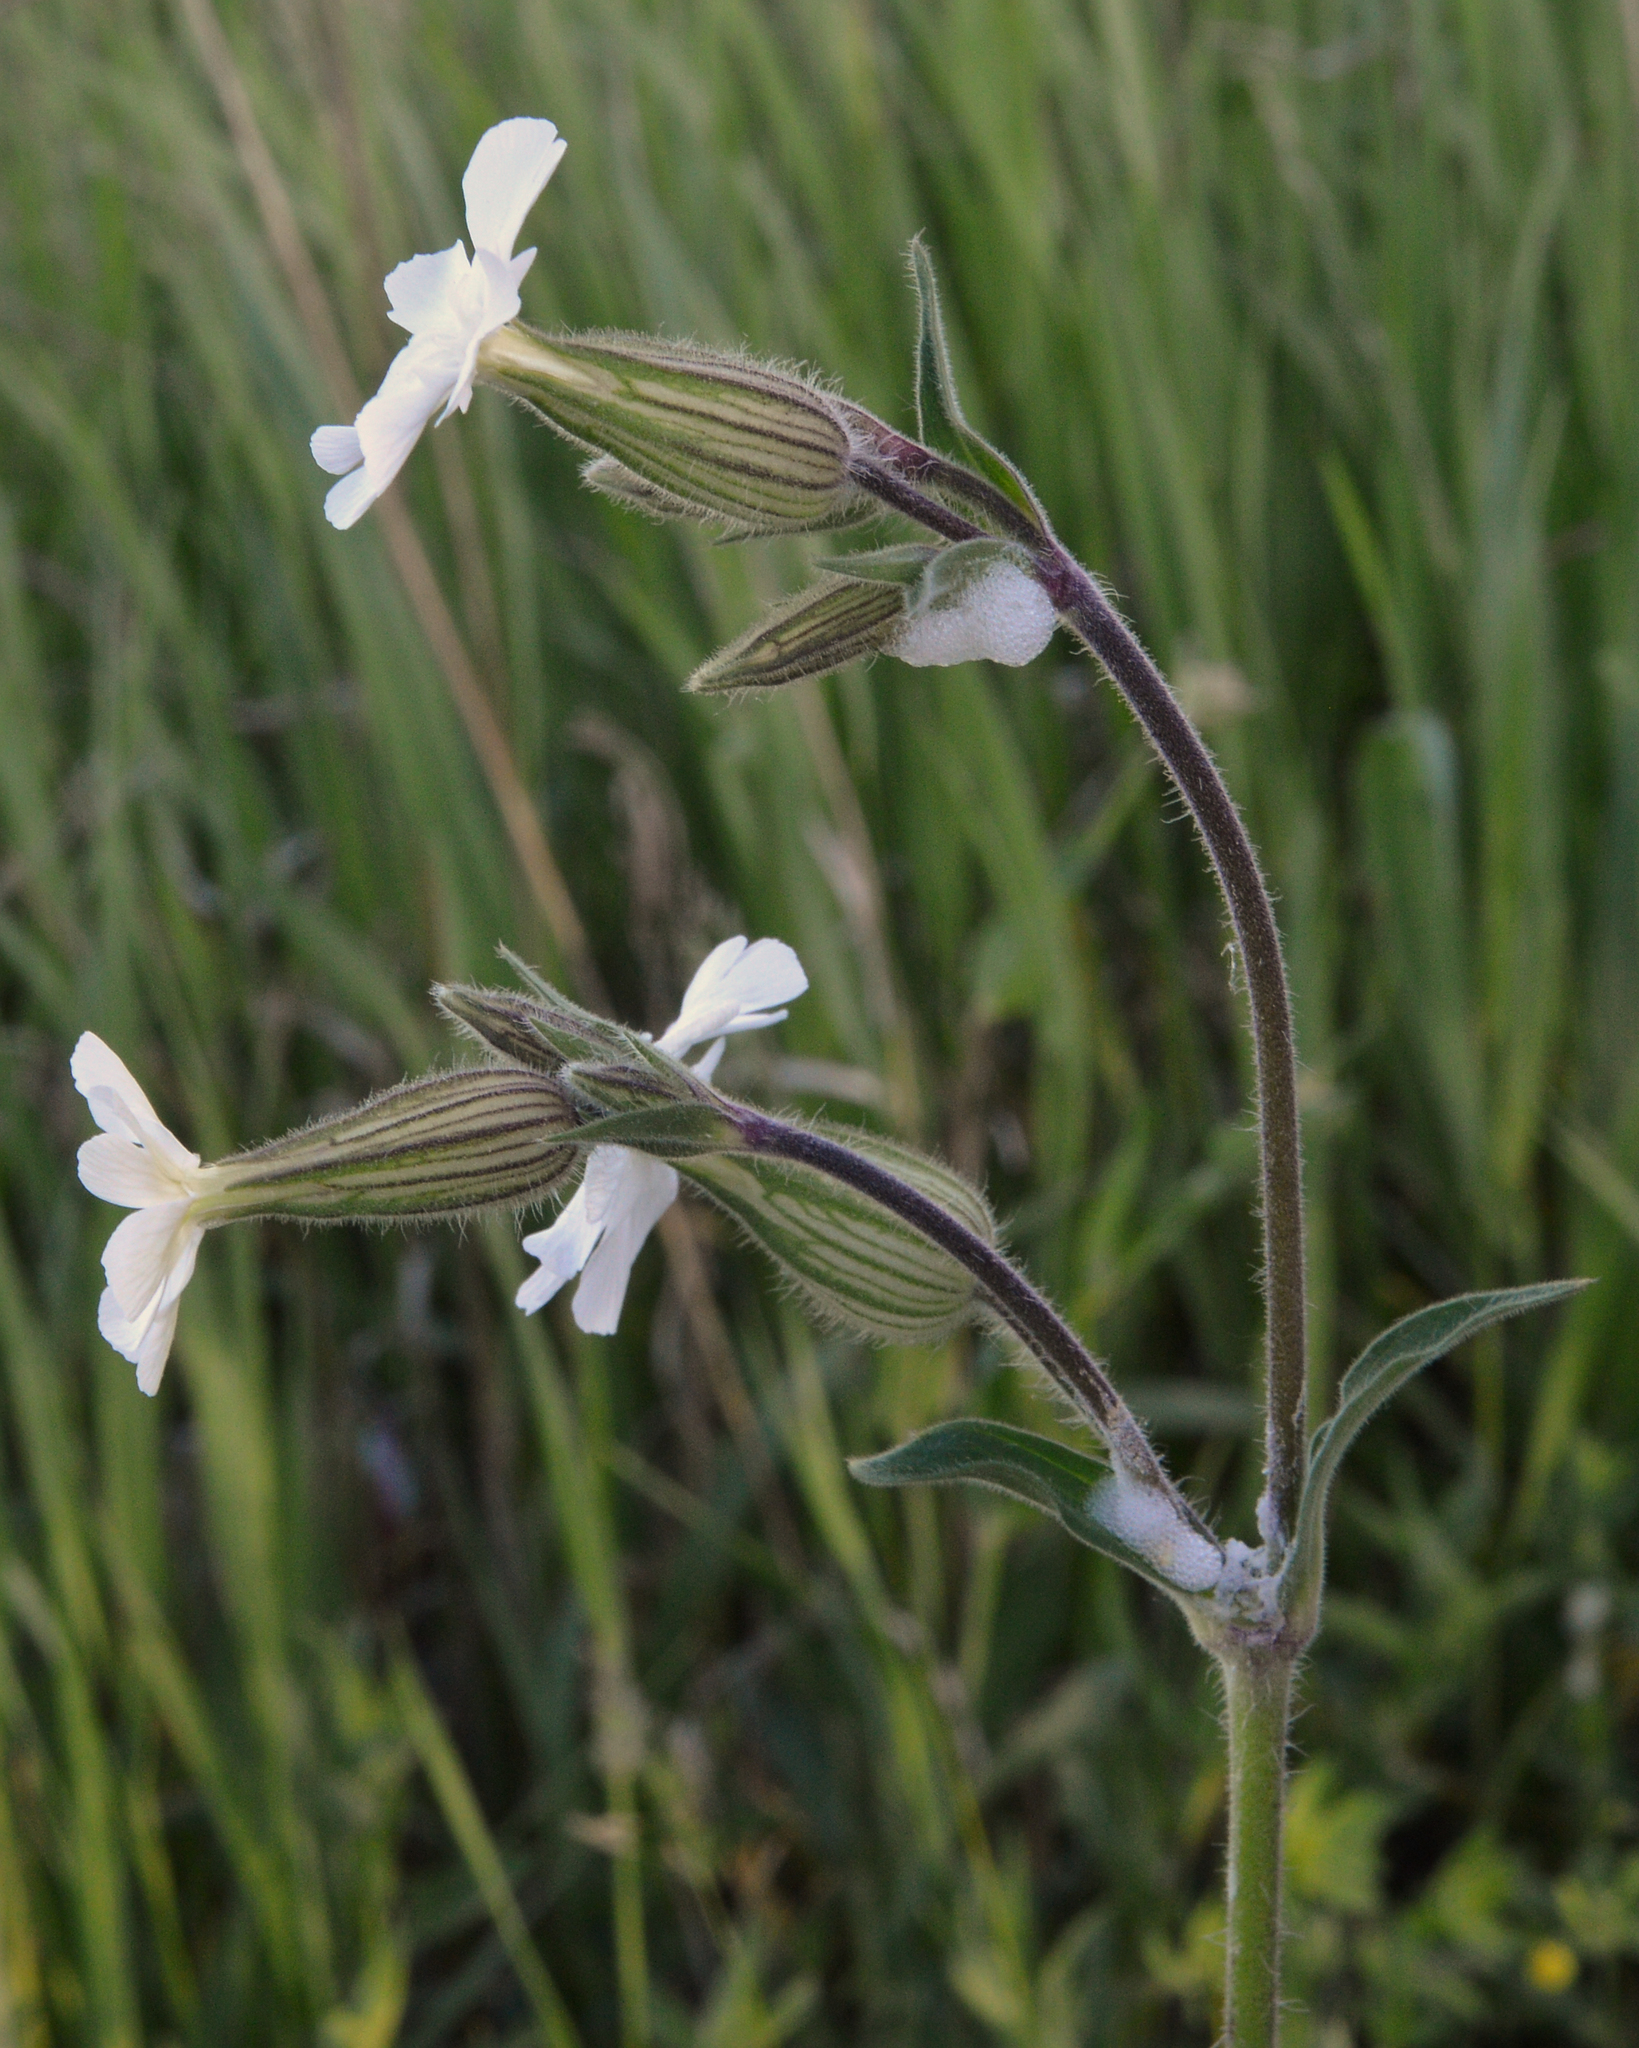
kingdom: Plantae
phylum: Tracheophyta
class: Magnoliopsida
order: Caryophyllales
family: Caryophyllaceae
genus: Silene
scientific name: Silene latifolia
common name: White campion
